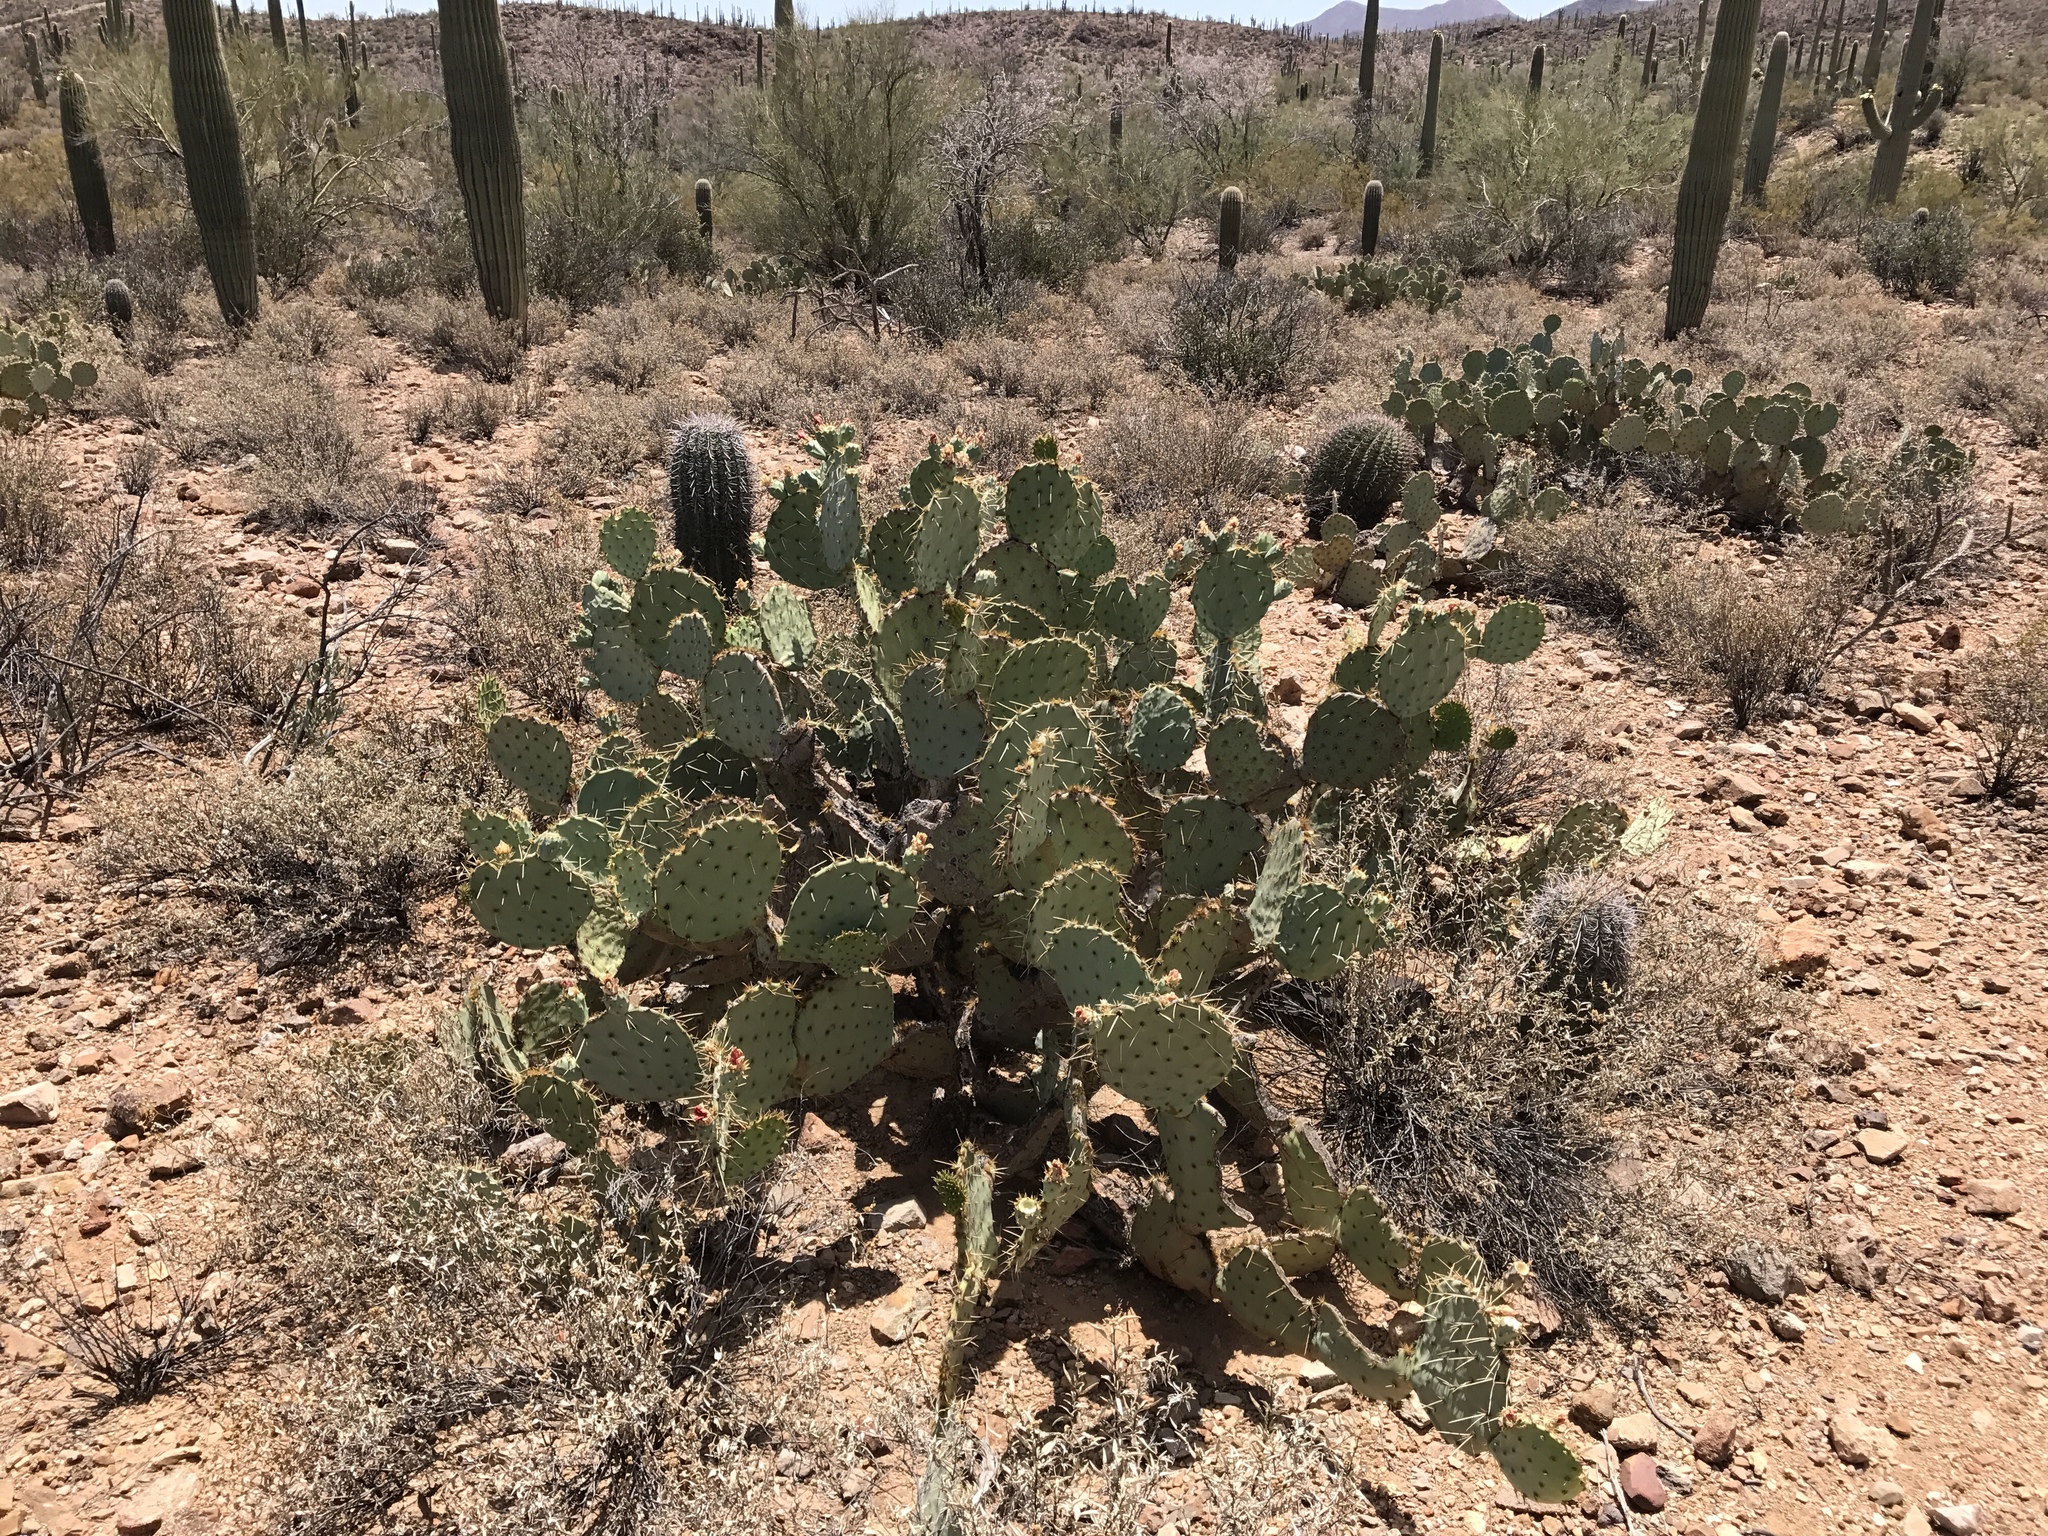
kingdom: Plantae
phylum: Tracheophyta
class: Magnoliopsida
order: Caryophyllales
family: Cactaceae
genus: Opuntia
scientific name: Opuntia engelmannii
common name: Cactus-apple
